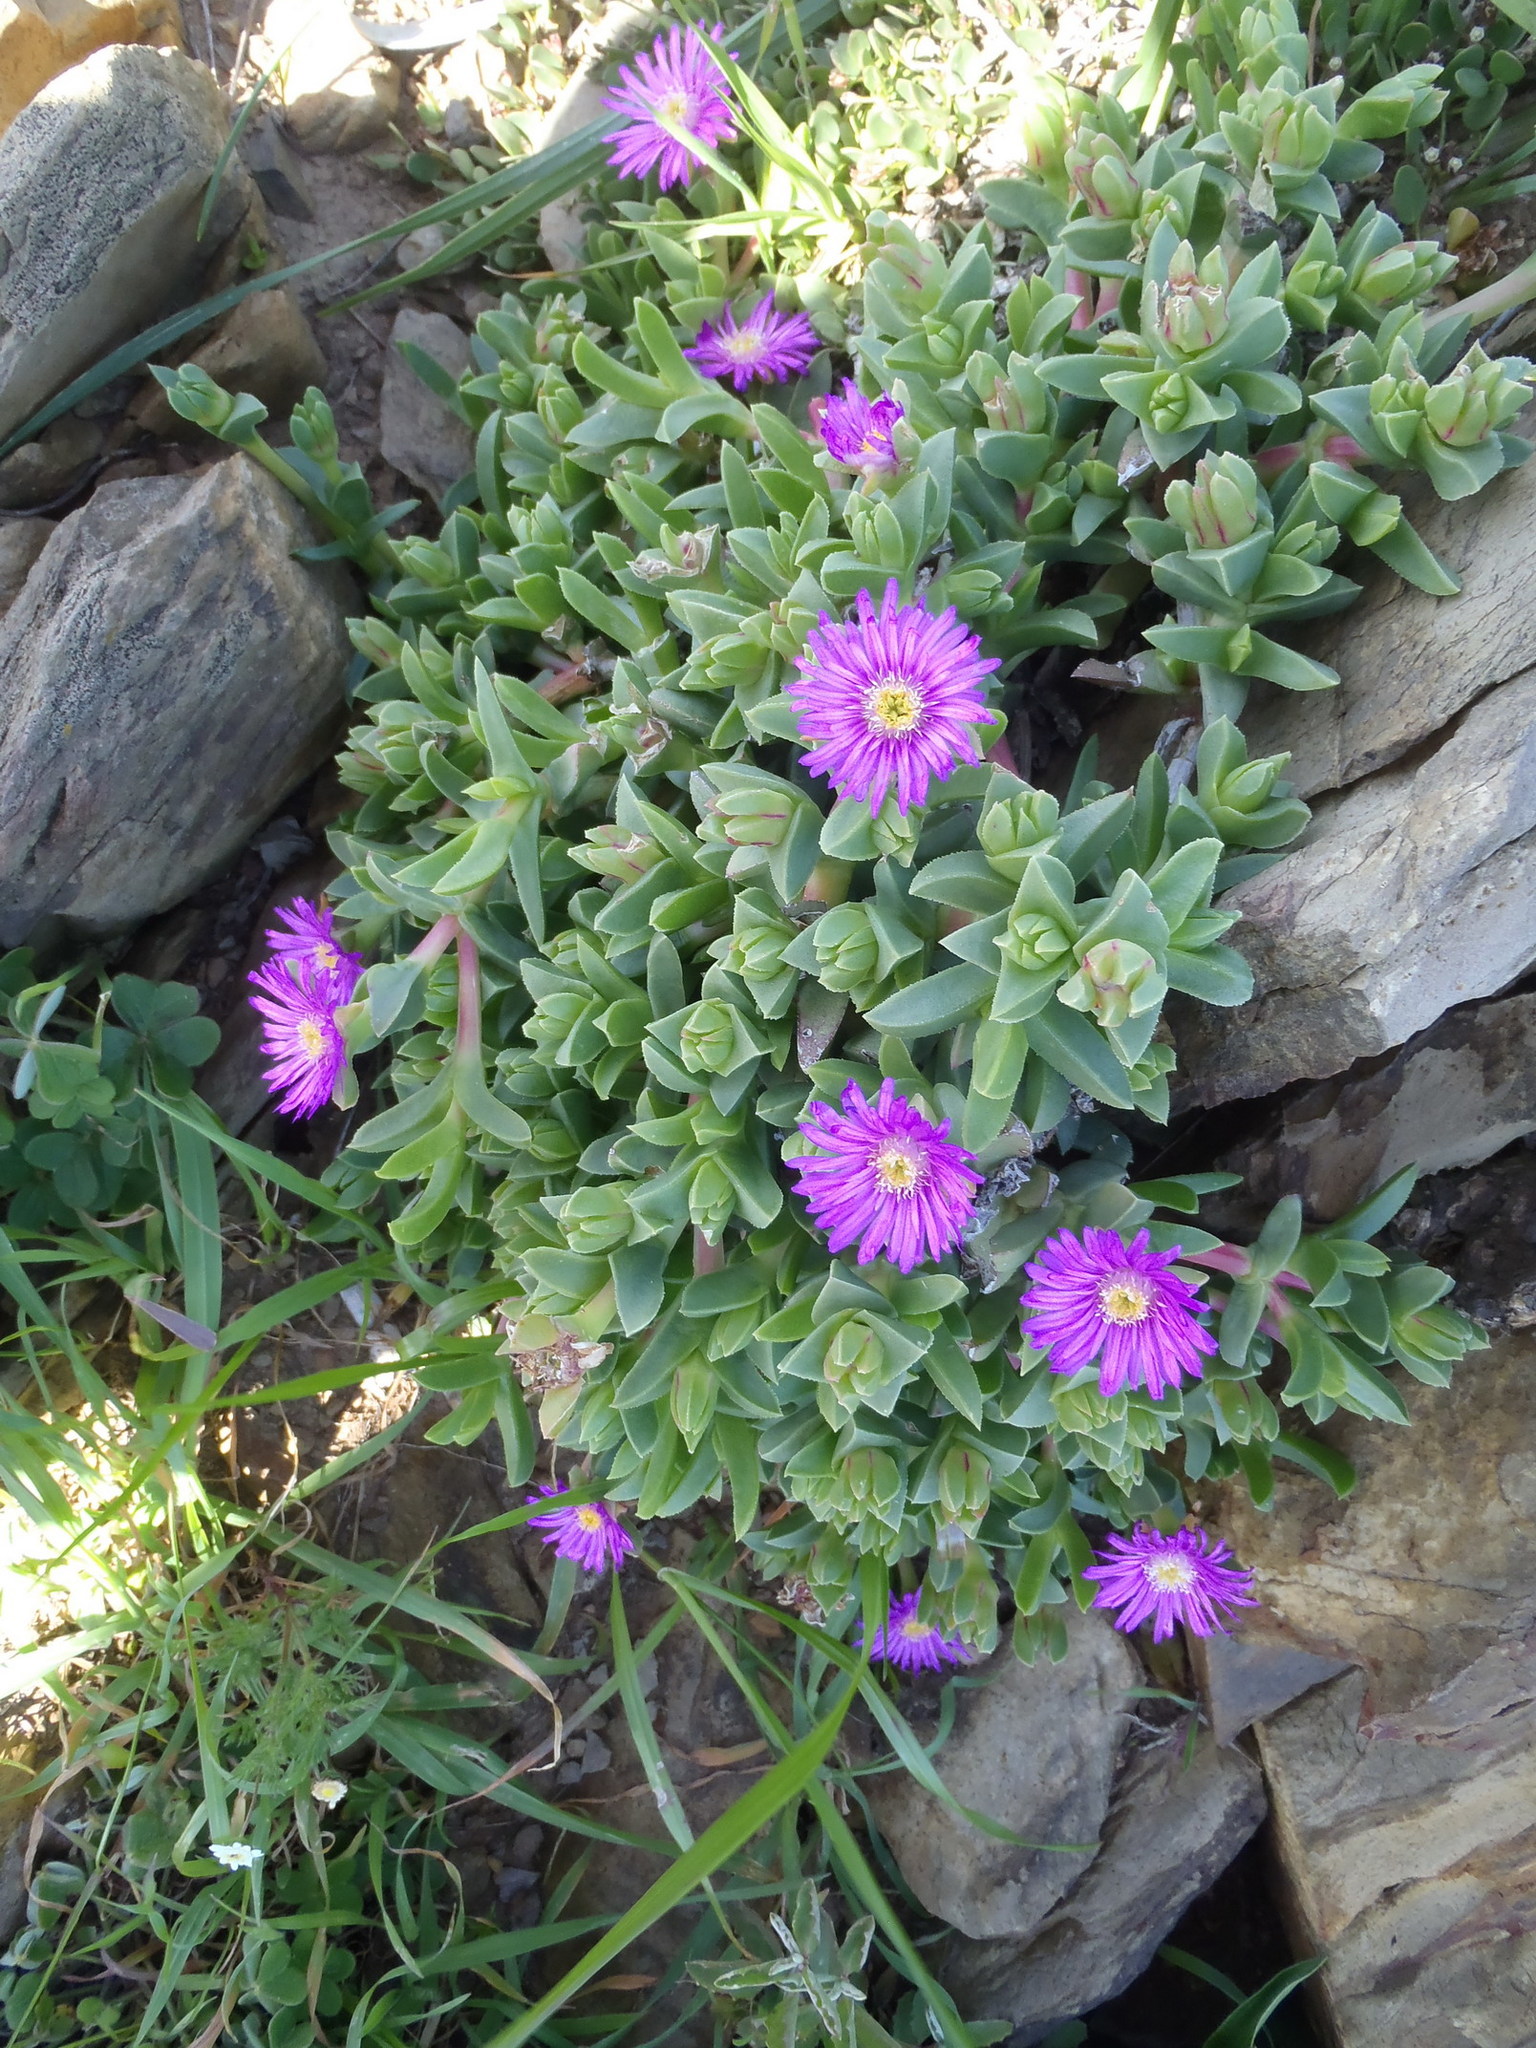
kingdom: Plantae
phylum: Tracheophyta
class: Magnoliopsida
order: Caryophyllales
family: Aizoaceae
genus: Ruschia
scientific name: Ruschia rubricaulis
